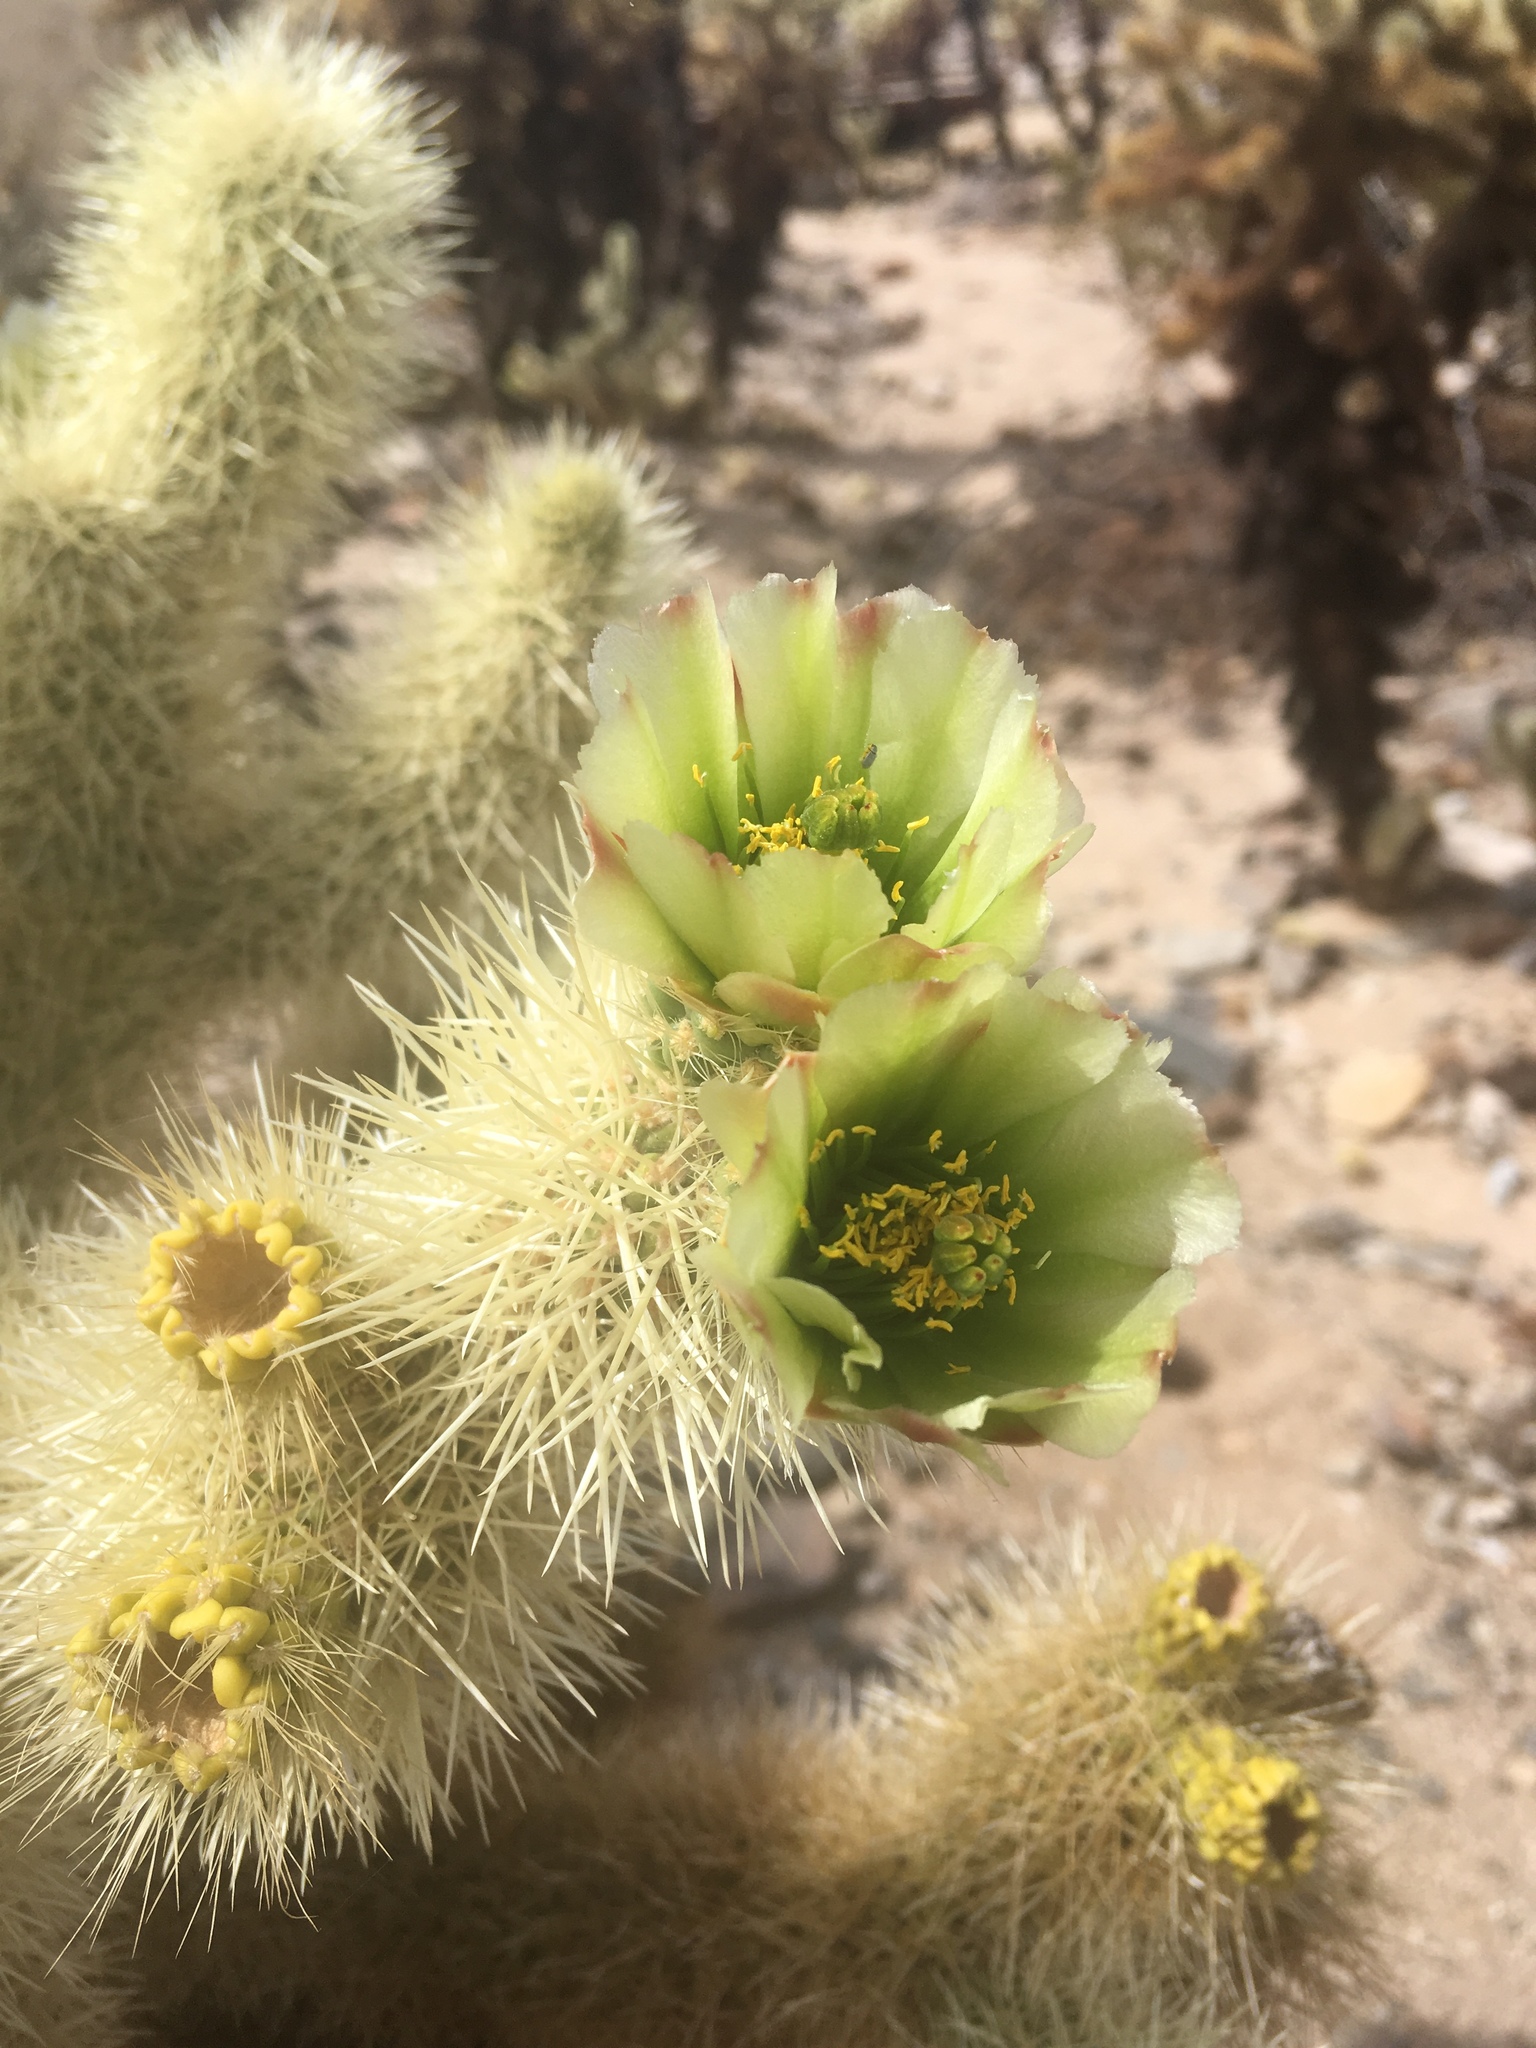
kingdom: Plantae
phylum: Tracheophyta
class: Magnoliopsida
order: Caryophyllales
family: Cactaceae
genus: Cylindropuntia
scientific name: Cylindropuntia fosbergii
